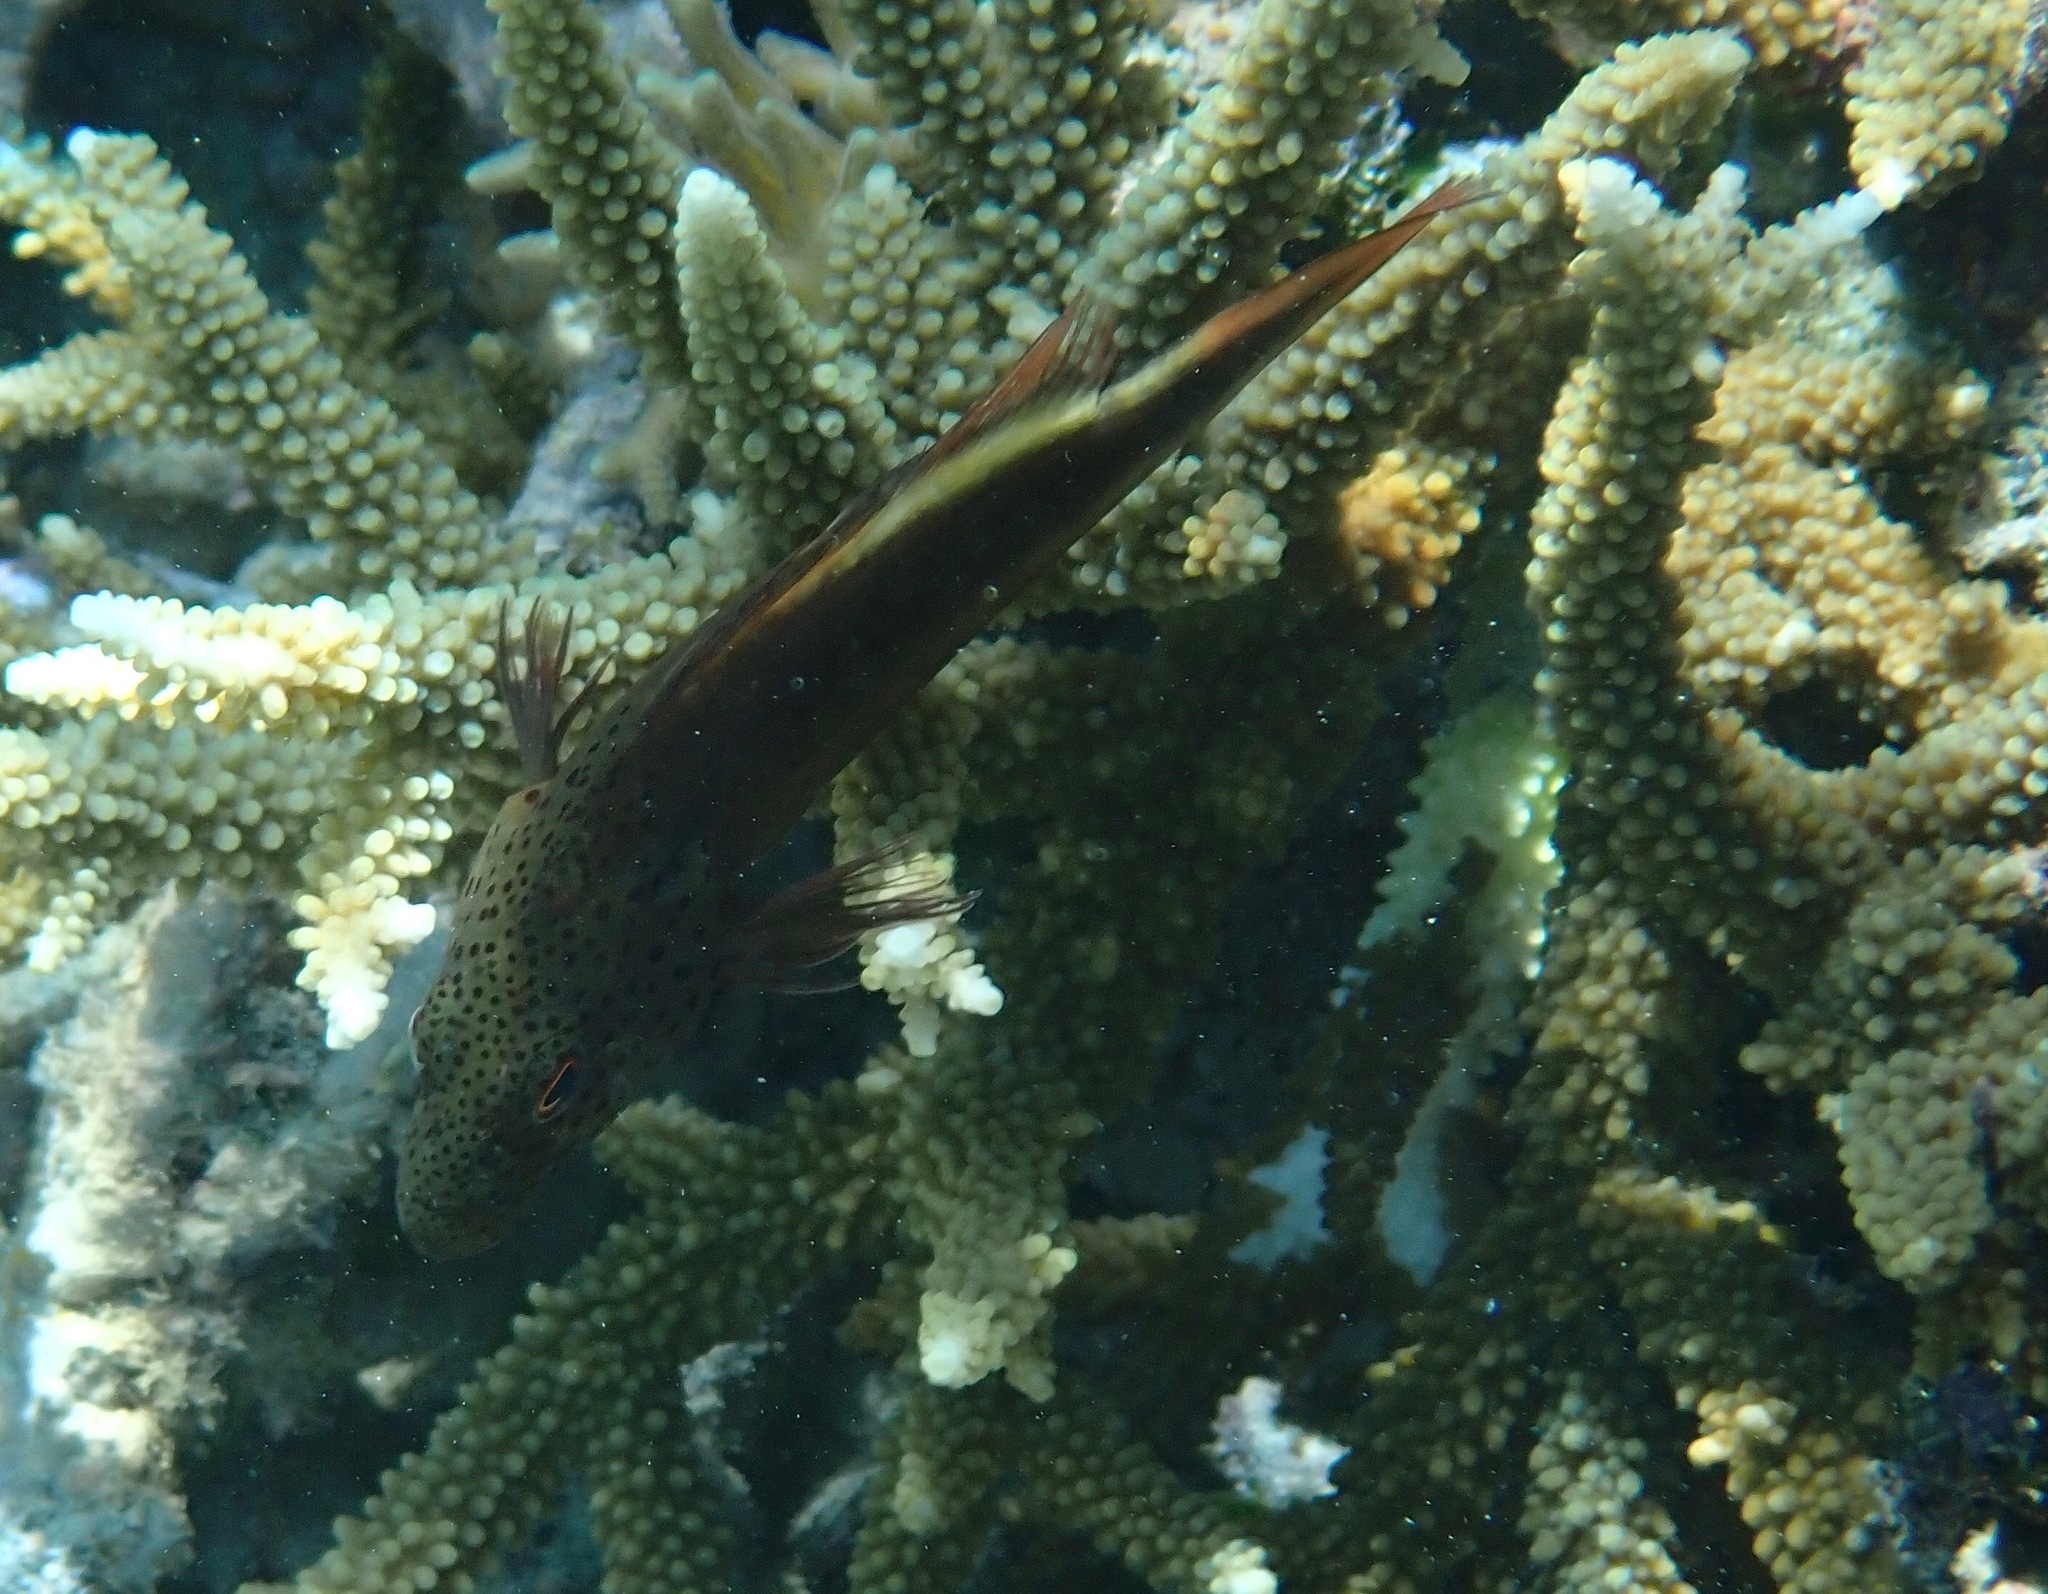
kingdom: Animalia
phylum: Chordata
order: Perciformes
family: Cirrhitidae
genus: Paracirrhites
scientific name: Paracirrhites forsteri
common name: Freckled hawkfish
